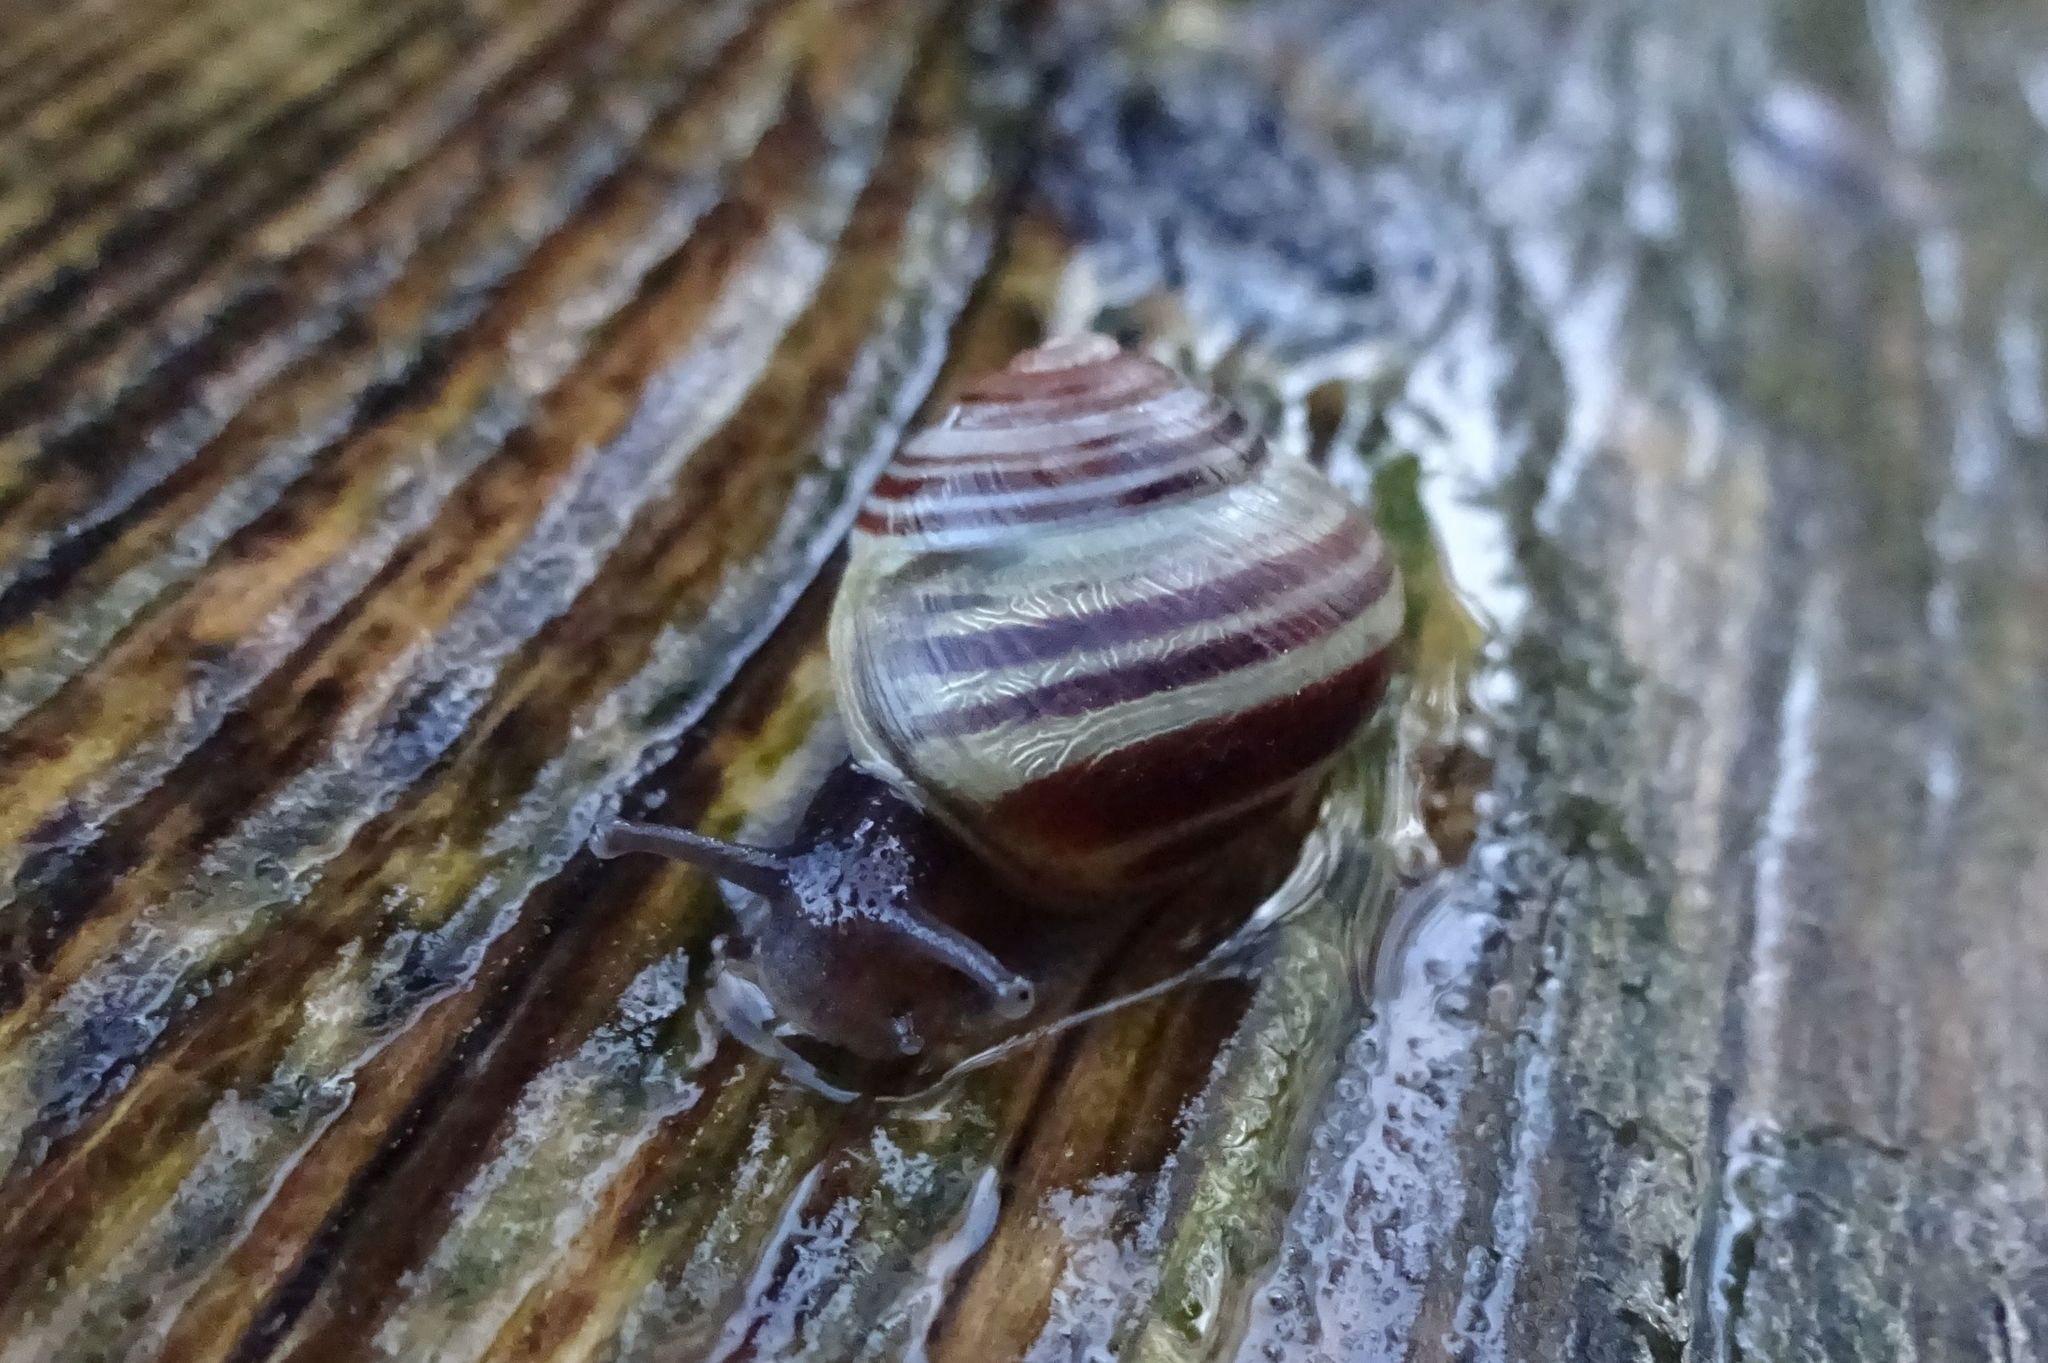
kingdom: Animalia
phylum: Mollusca
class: Gastropoda
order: Stylommatophora
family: Helicidae
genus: Cepaea
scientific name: Cepaea
